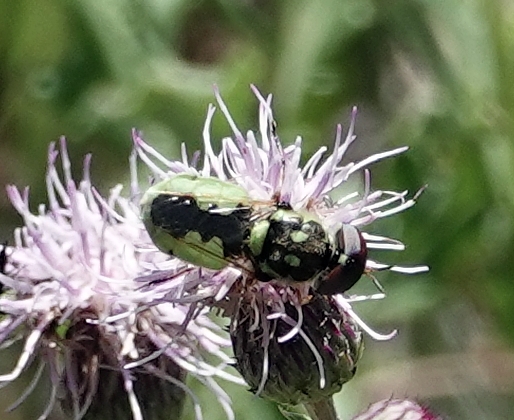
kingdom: Animalia
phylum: Arthropoda
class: Insecta
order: Diptera
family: Stratiomyidae
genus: Hedriodiscus
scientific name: Hedriodiscus binotatus
